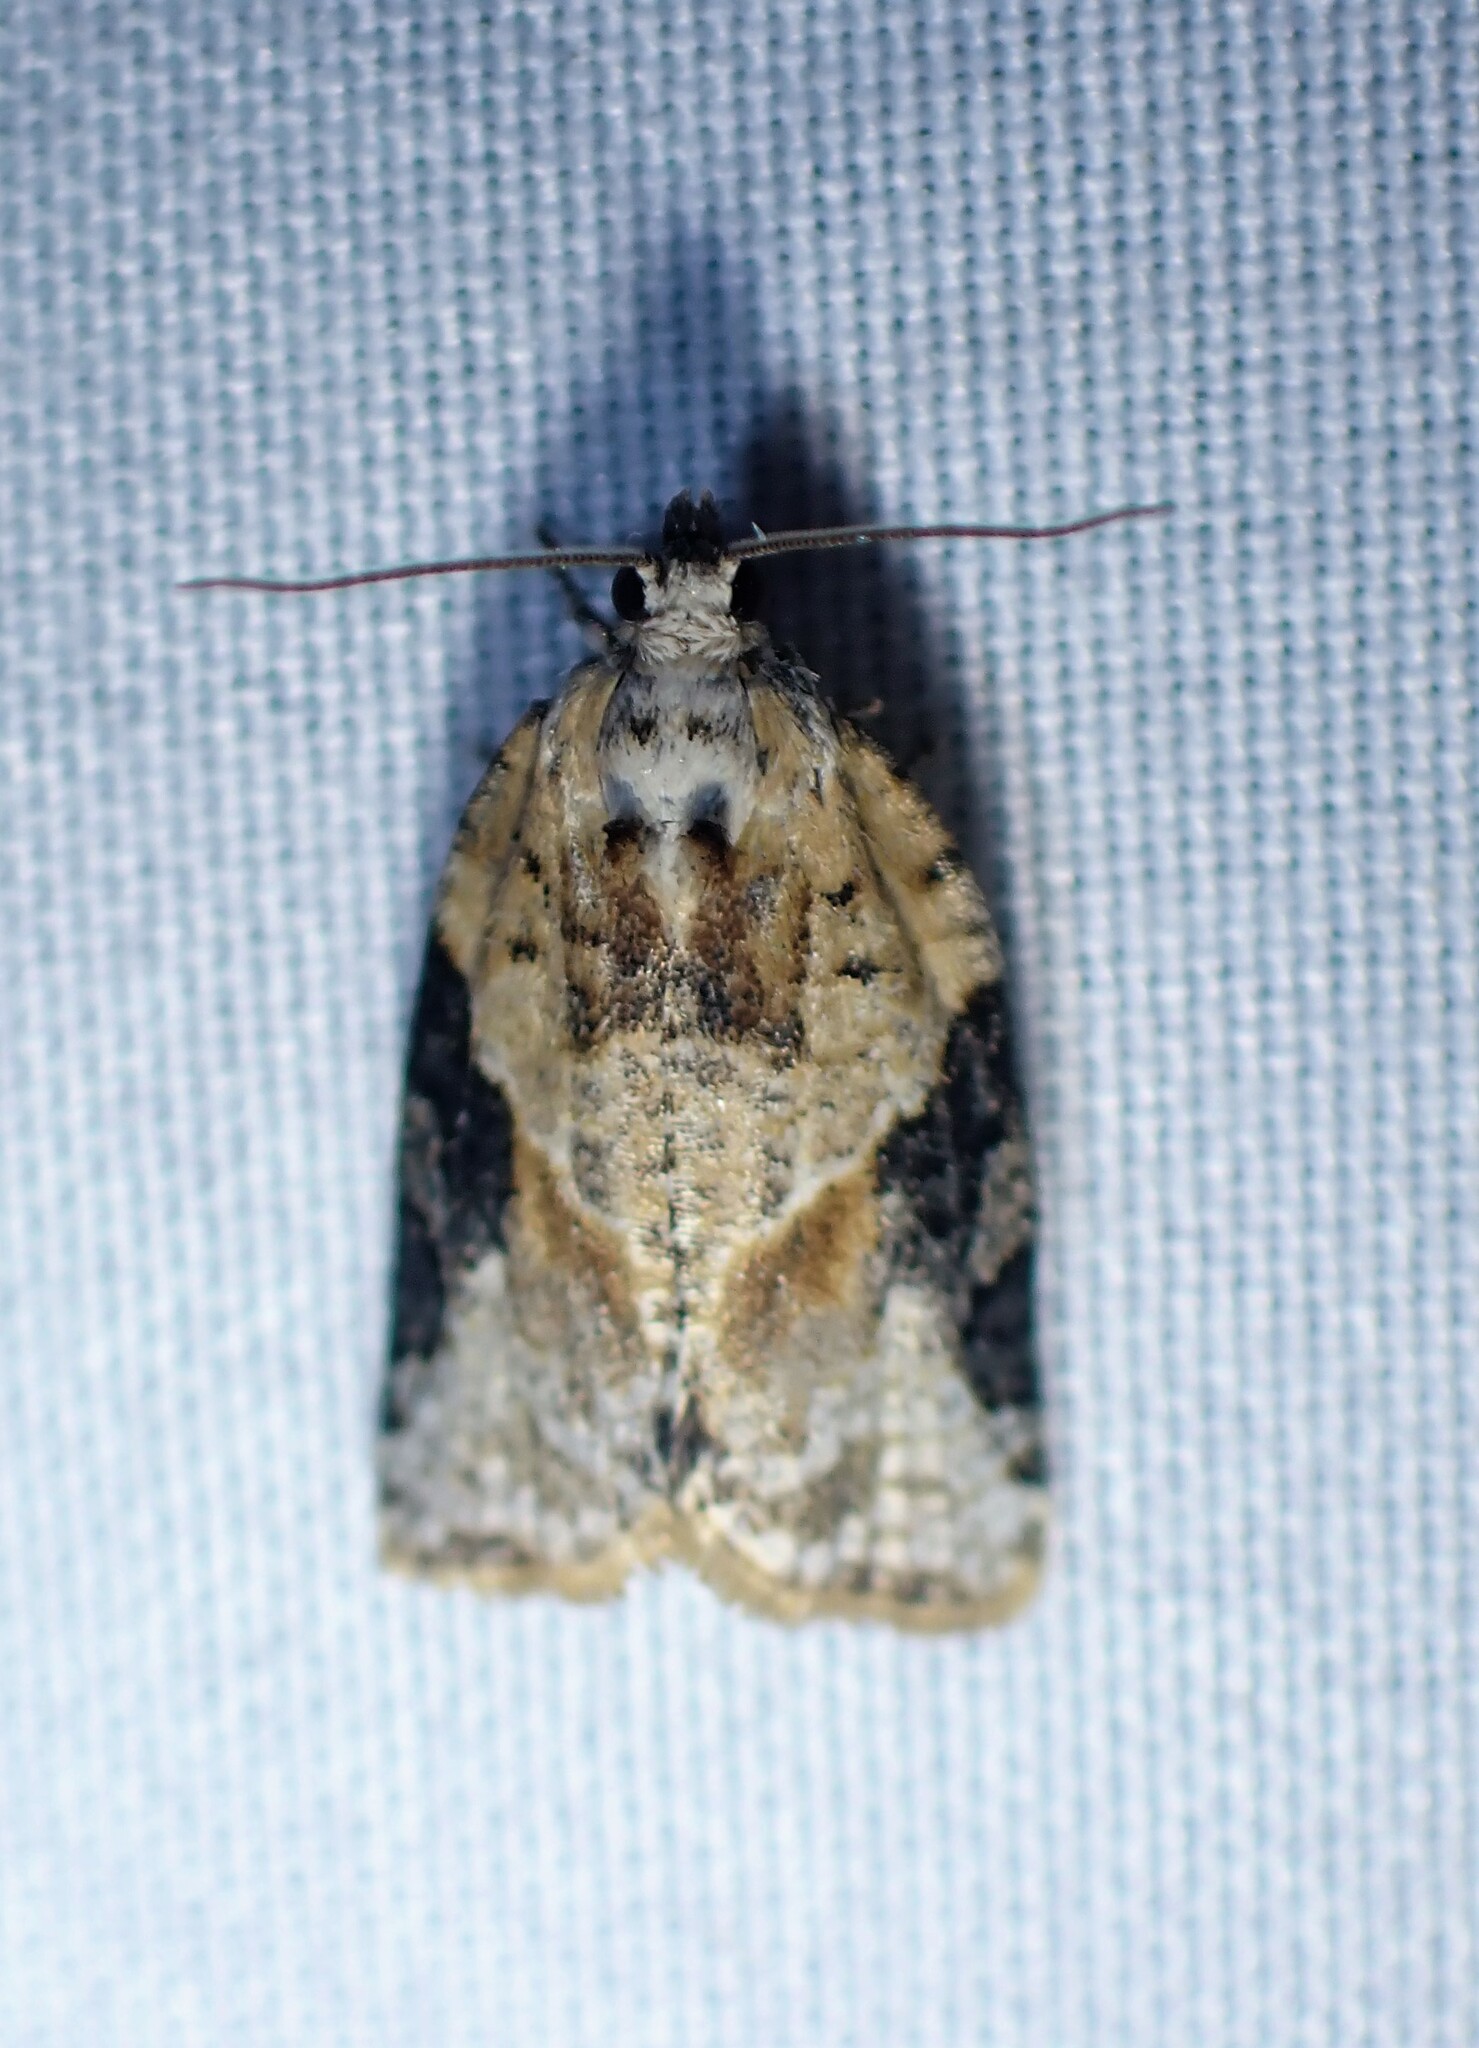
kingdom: Animalia
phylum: Arthropoda
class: Insecta
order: Lepidoptera
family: Tortricidae
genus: Argyrotaenia
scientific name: Argyrotaenia mariana
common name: Gray-banded leafroller moth
